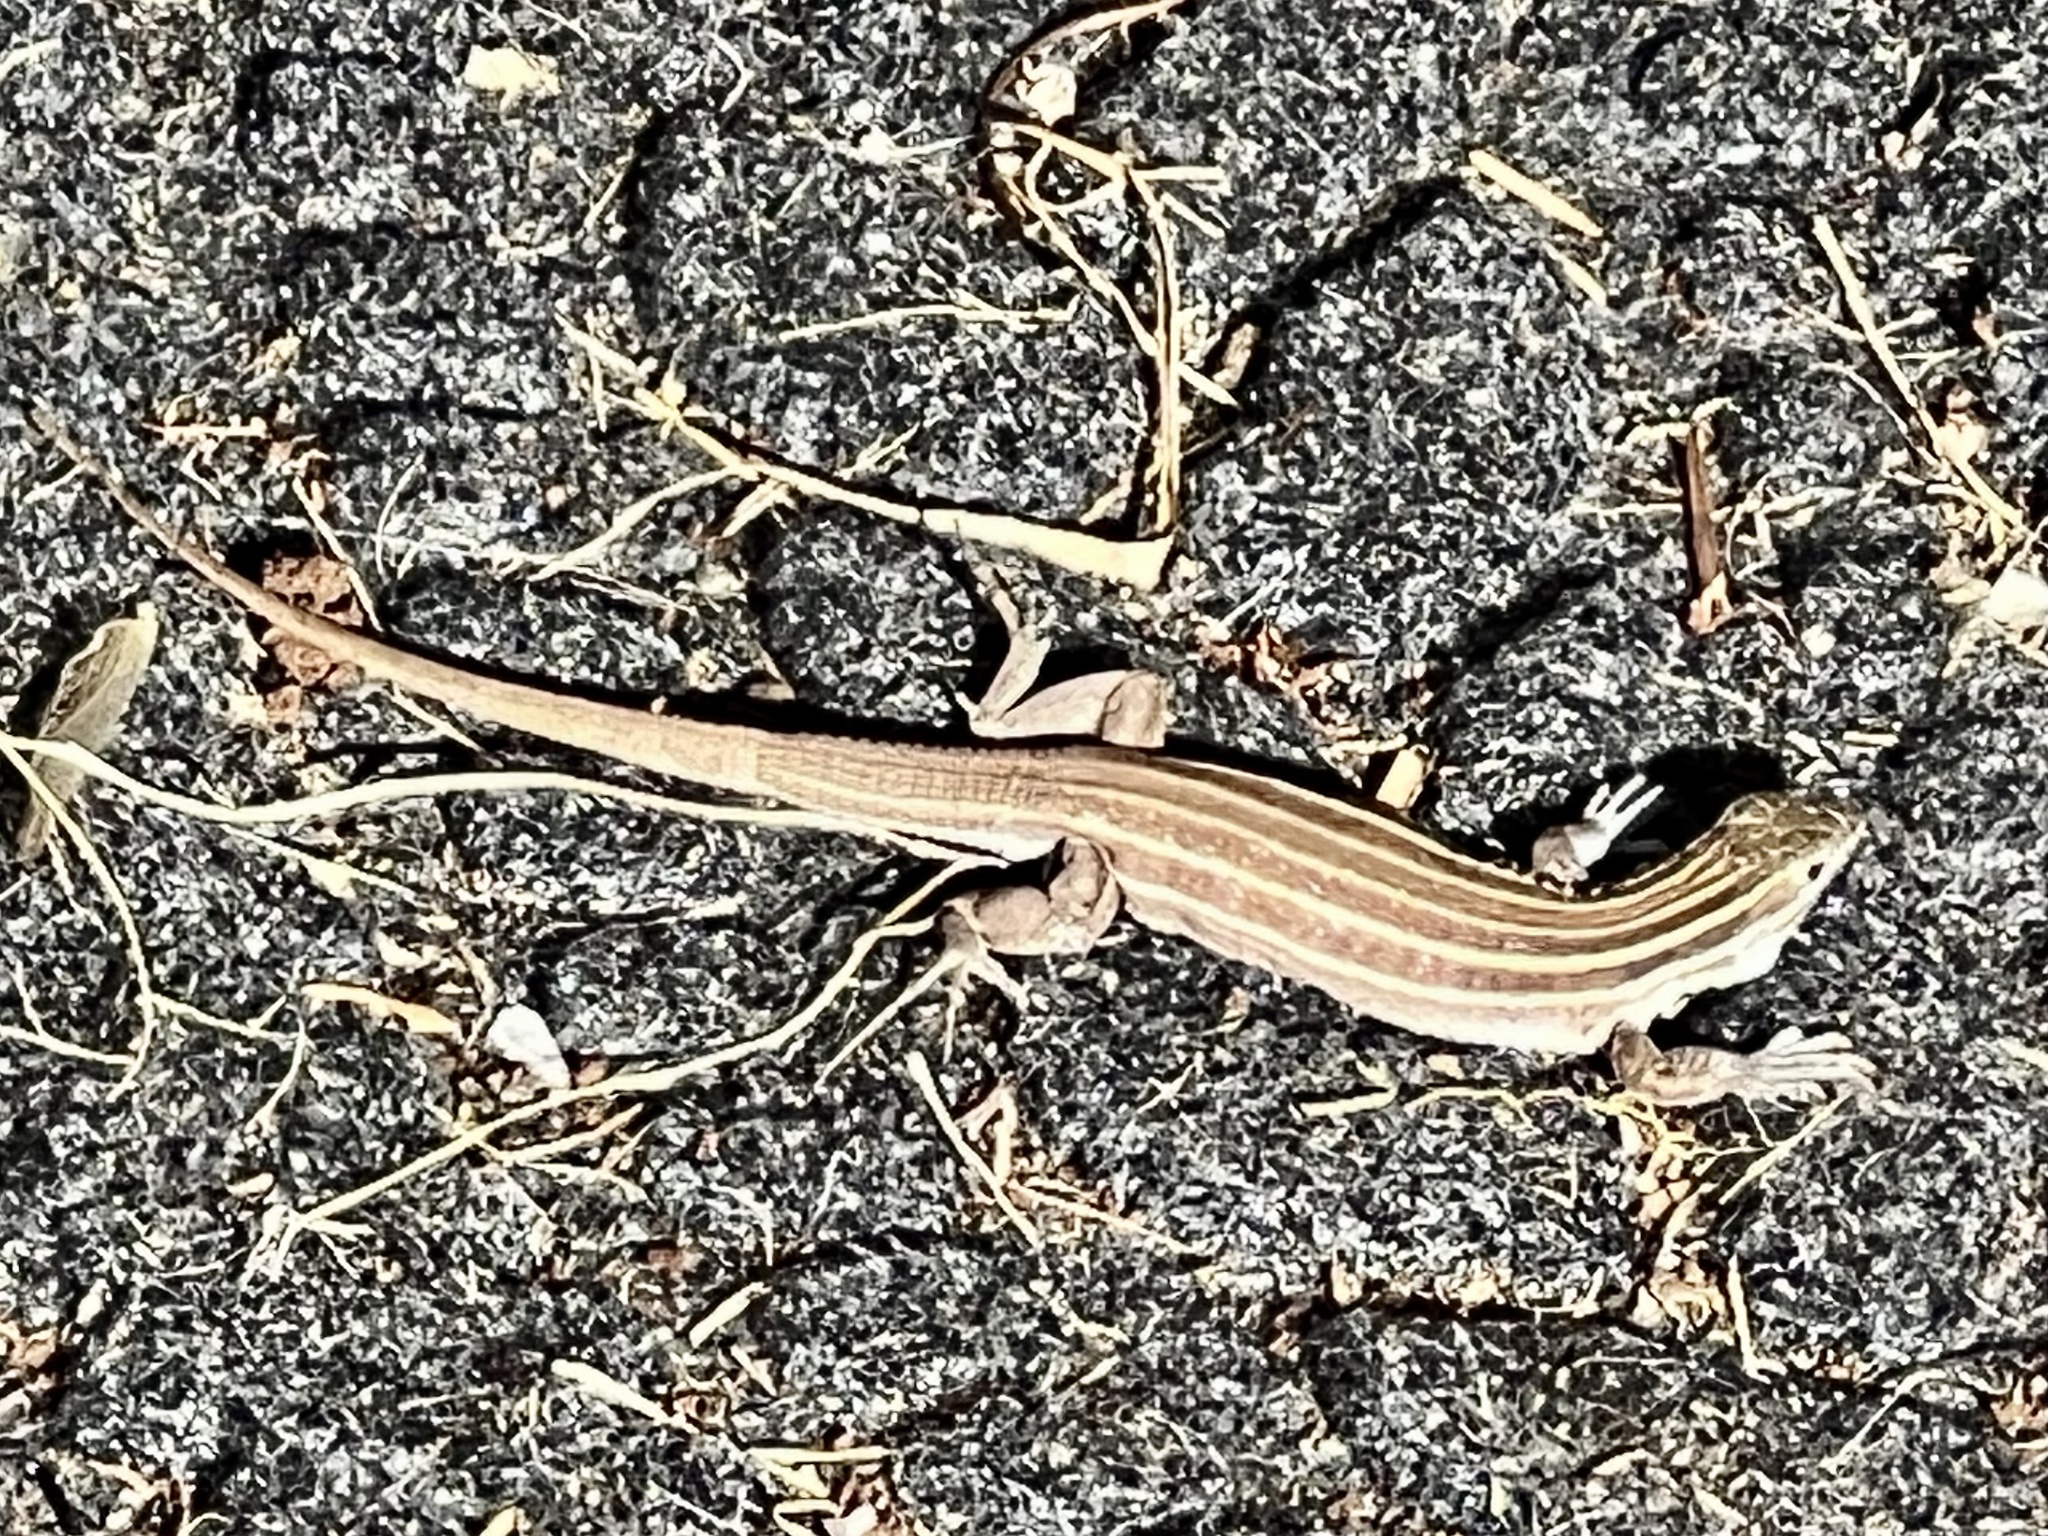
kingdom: Animalia
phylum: Chordata
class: Squamata
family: Teiidae
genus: Aspidoscelis
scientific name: Aspidoscelis uniparens
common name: Desert grassland whiptail
